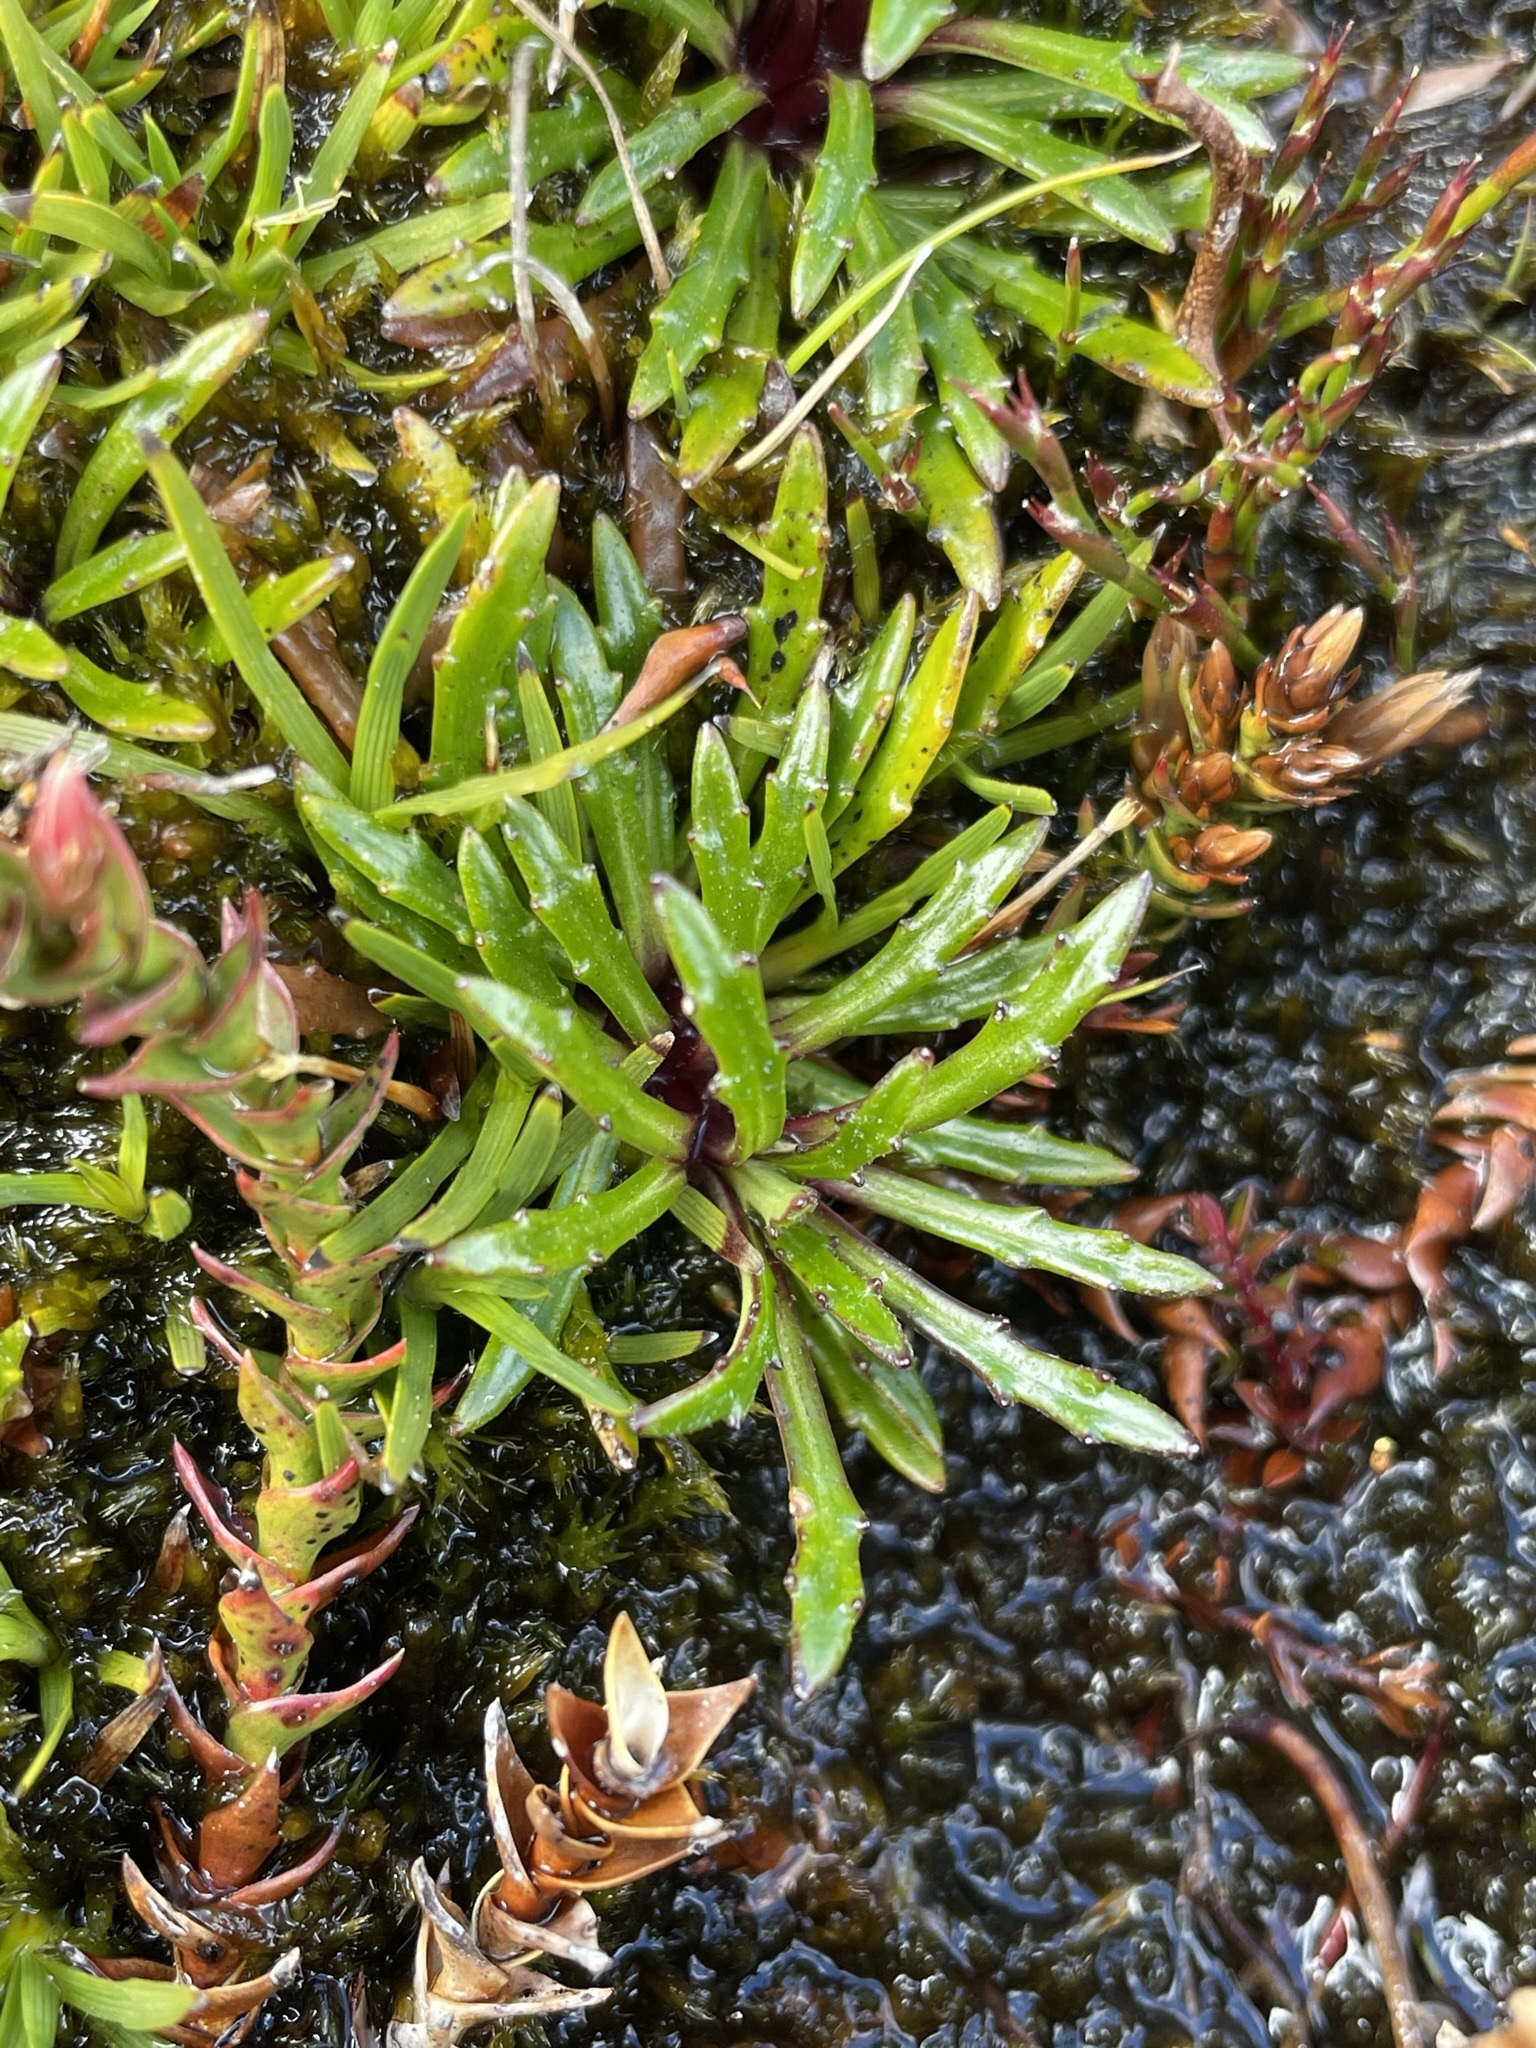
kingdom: Plantae
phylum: Tracheophyta
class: Magnoliopsida
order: Asterales
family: Asteraceae
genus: Scapisenecio
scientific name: Scapisenecio albogilvus
